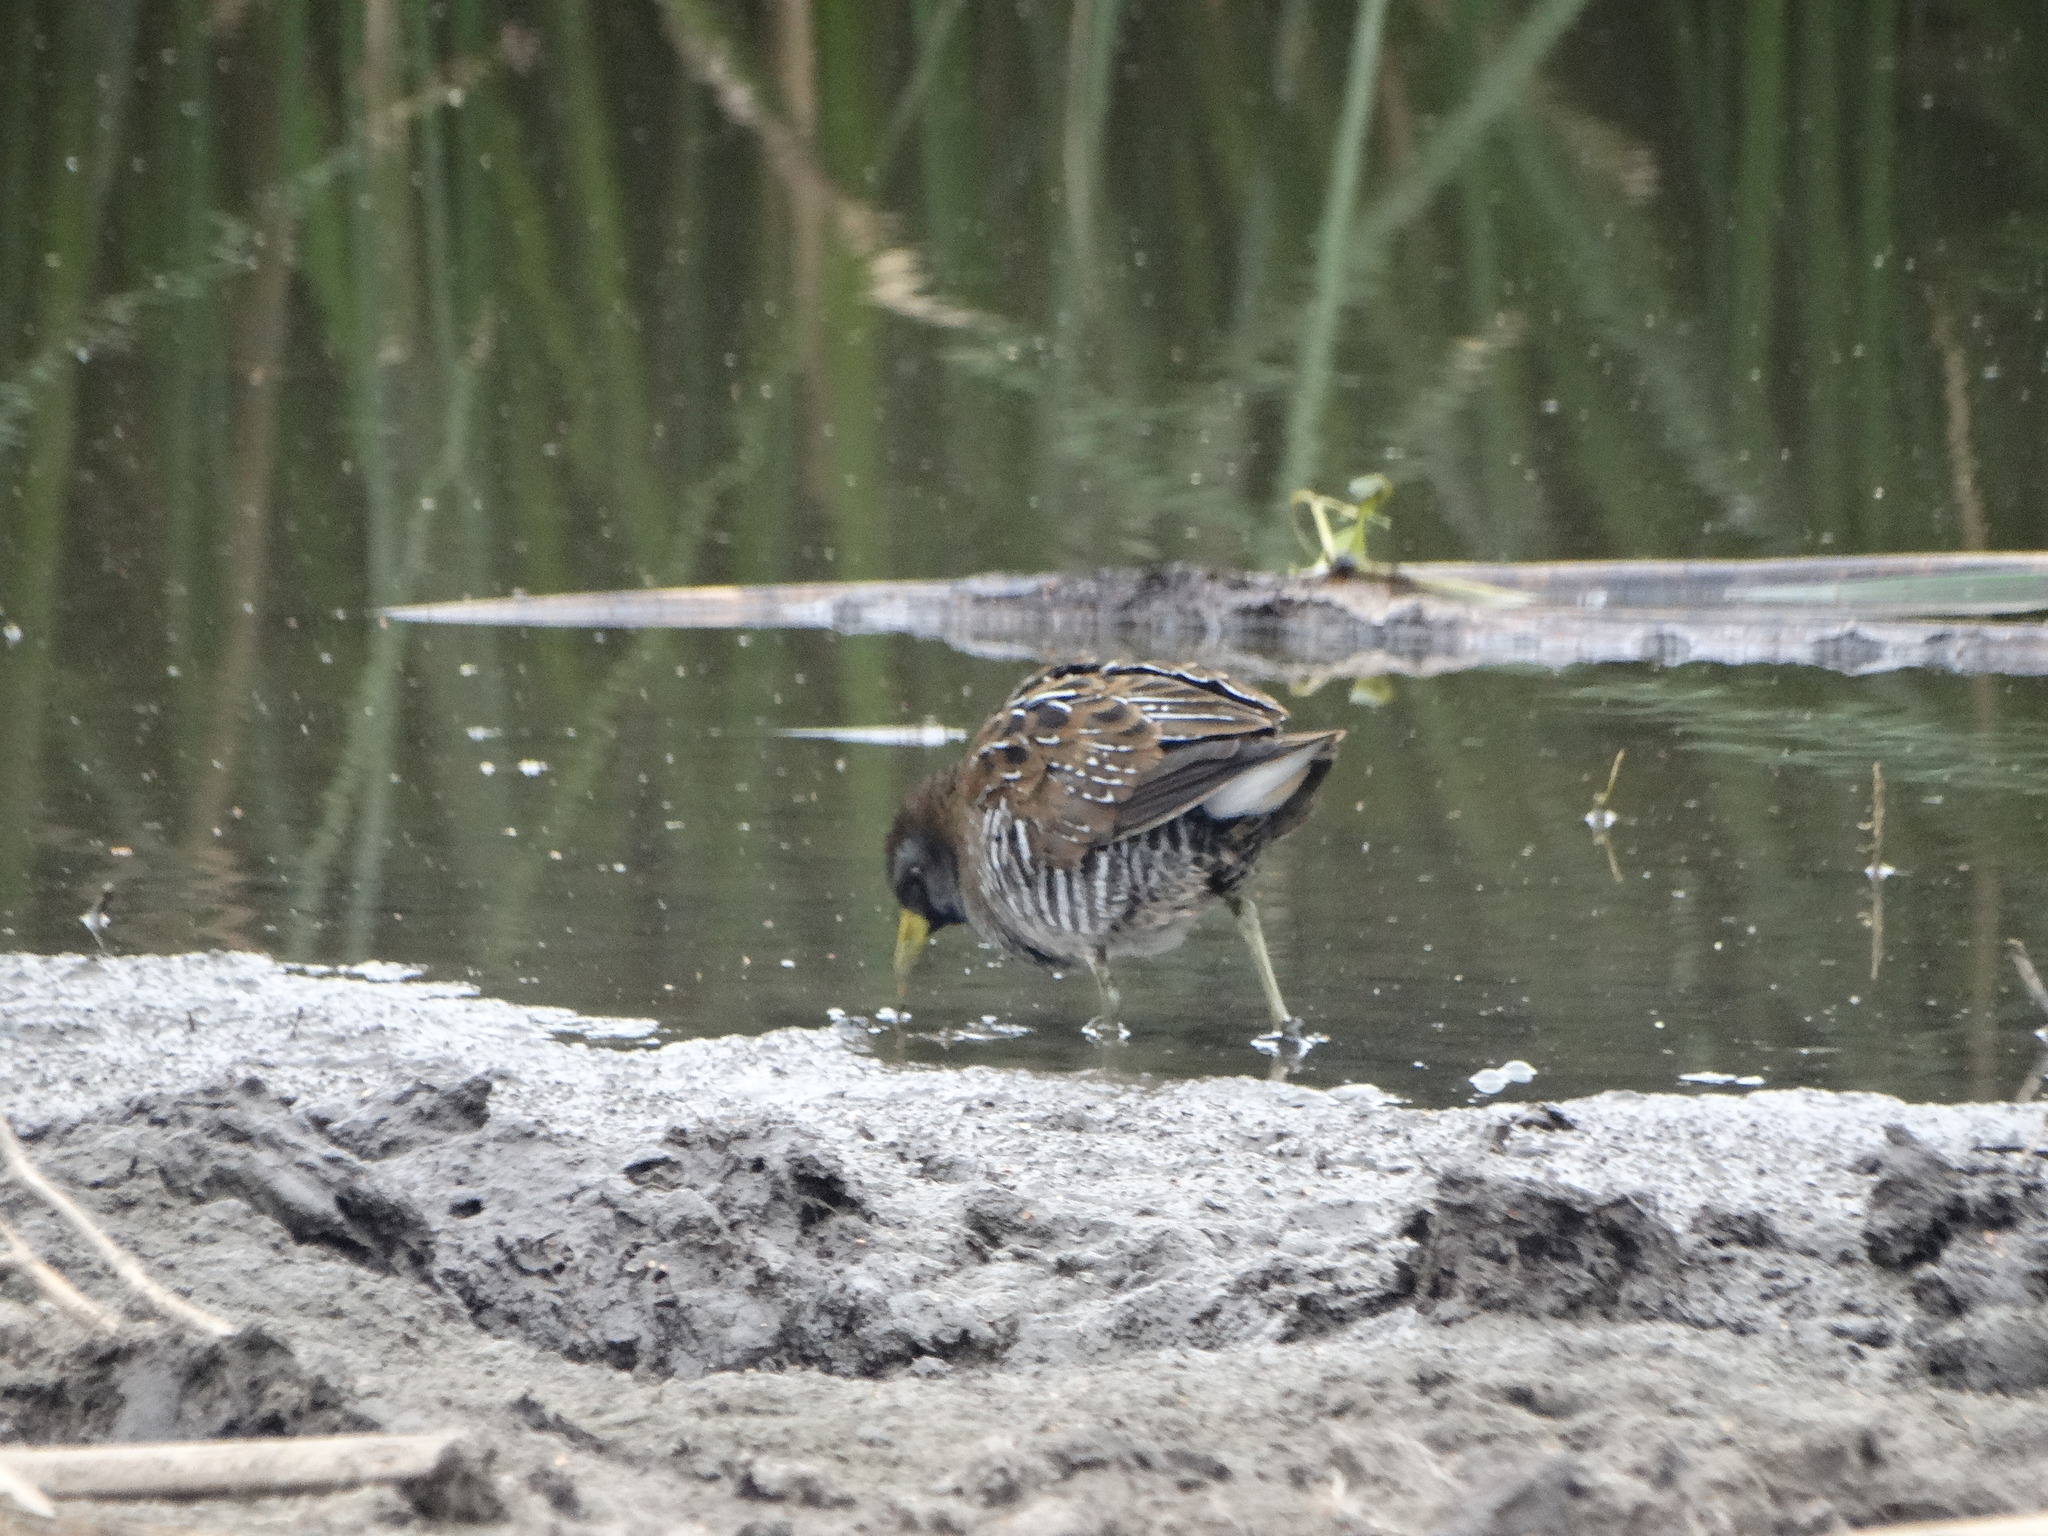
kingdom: Animalia
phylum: Chordata
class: Aves
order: Gruiformes
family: Rallidae
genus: Porzana
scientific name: Porzana carolina
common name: Sora
